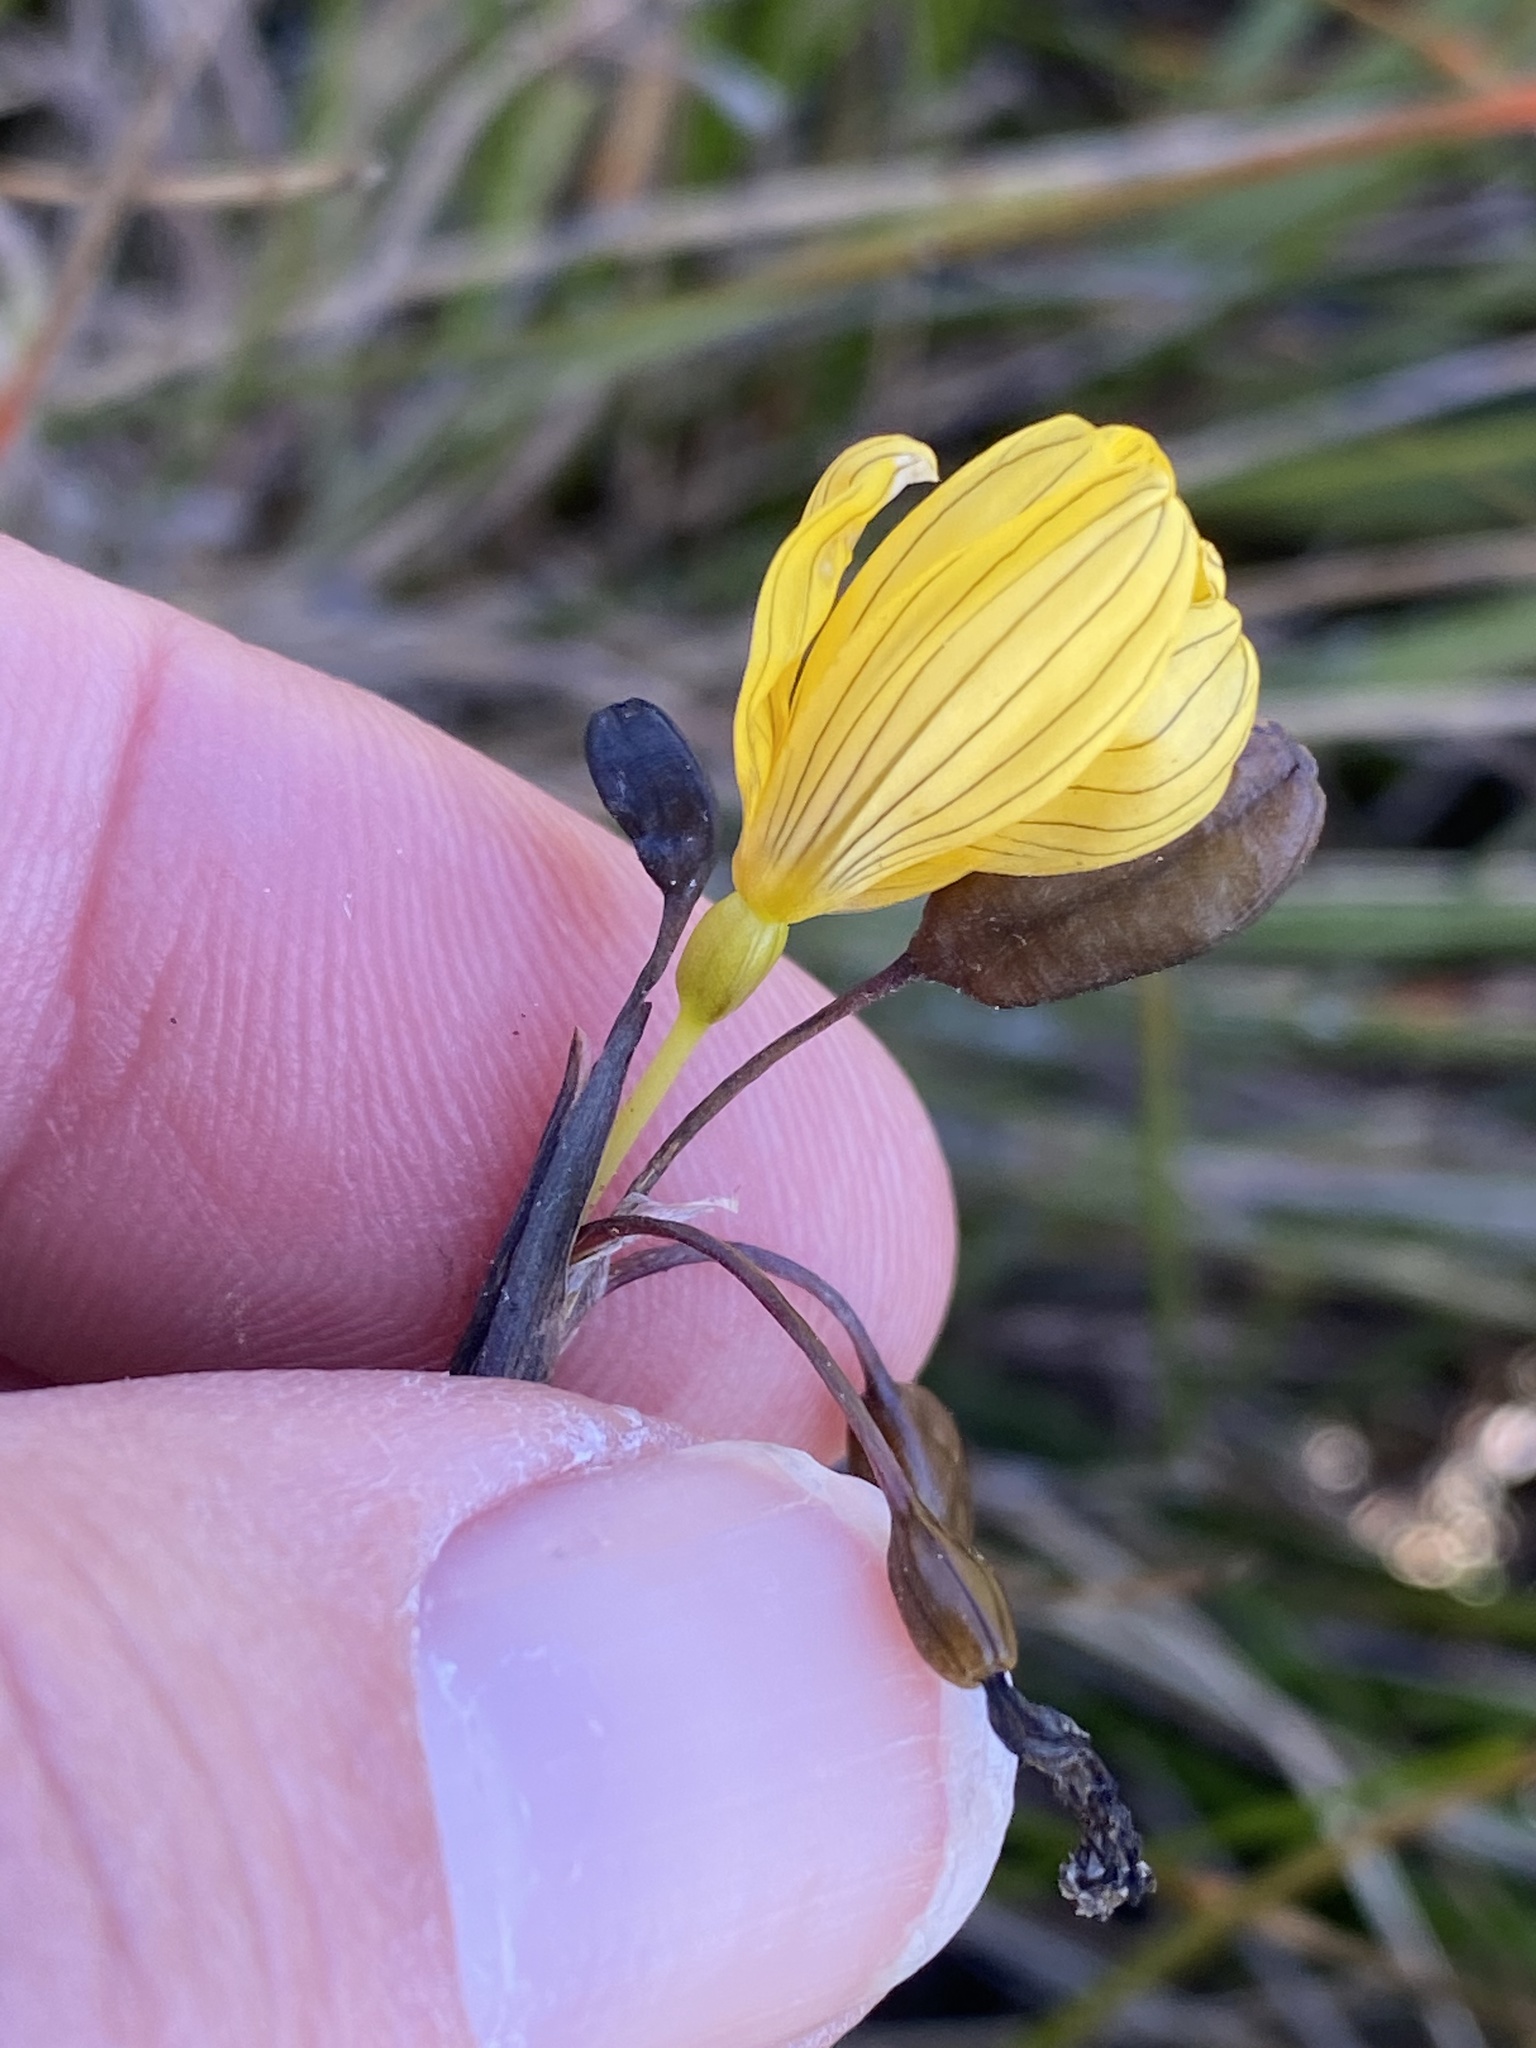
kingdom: Plantae
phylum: Tracheophyta
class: Liliopsida
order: Asparagales
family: Iridaceae
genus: Sisyrinchium
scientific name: Sisyrinchium californicum
